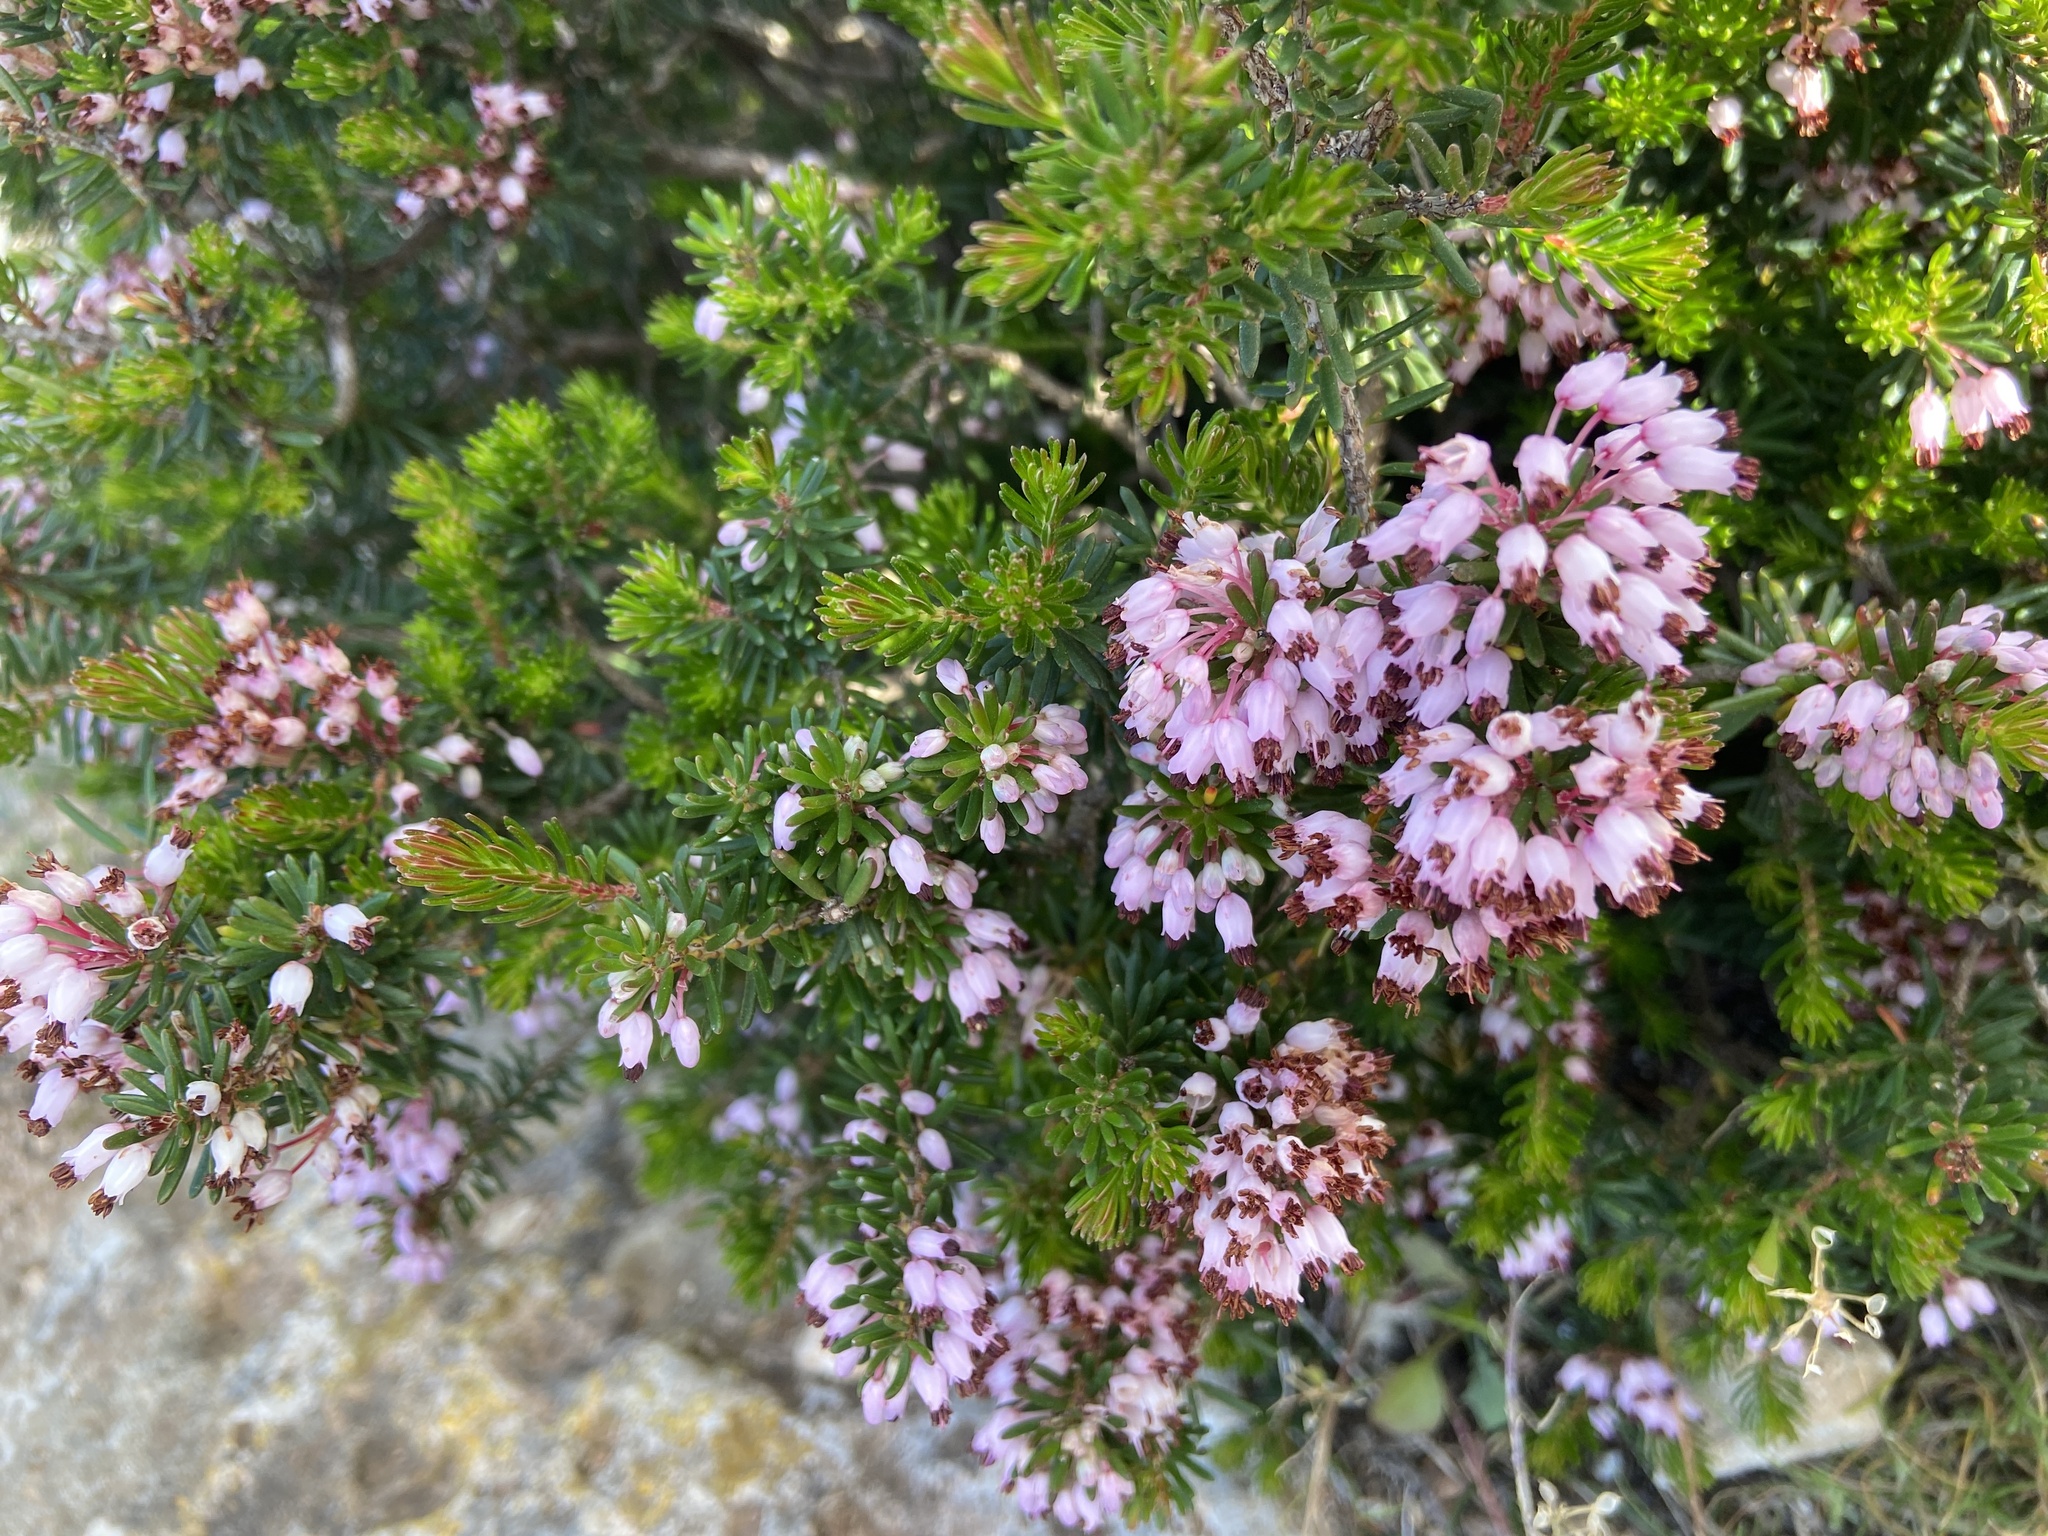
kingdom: Plantae
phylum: Tracheophyta
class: Magnoliopsida
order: Ericales
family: Ericaceae
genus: Erica
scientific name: Erica multiflora
